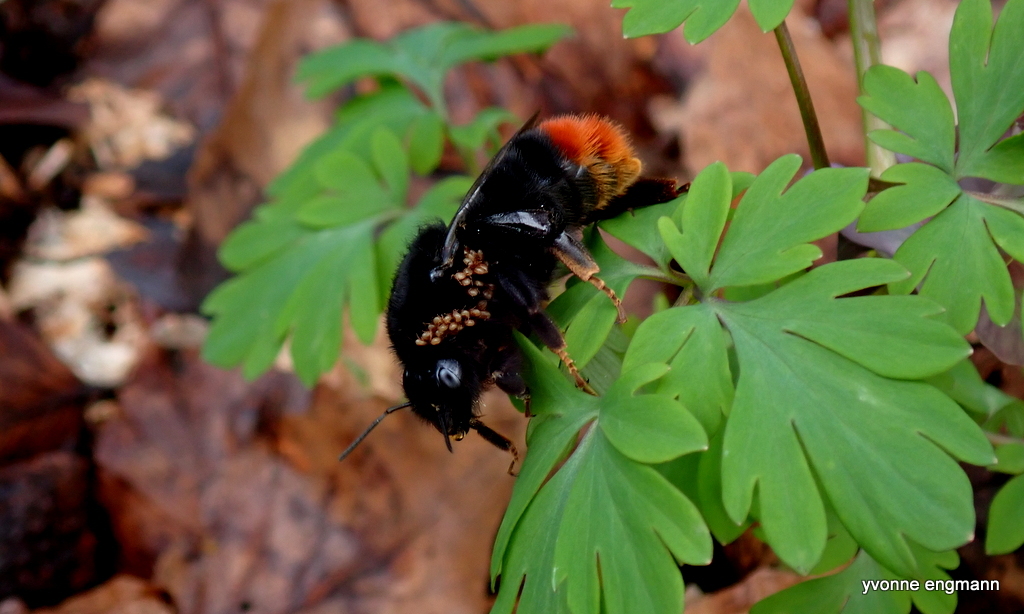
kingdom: Animalia
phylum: Arthropoda
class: Insecta
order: Hymenoptera
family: Apidae
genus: Bombus
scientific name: Bombus lapidarius
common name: Large red-tailed humble-bee
